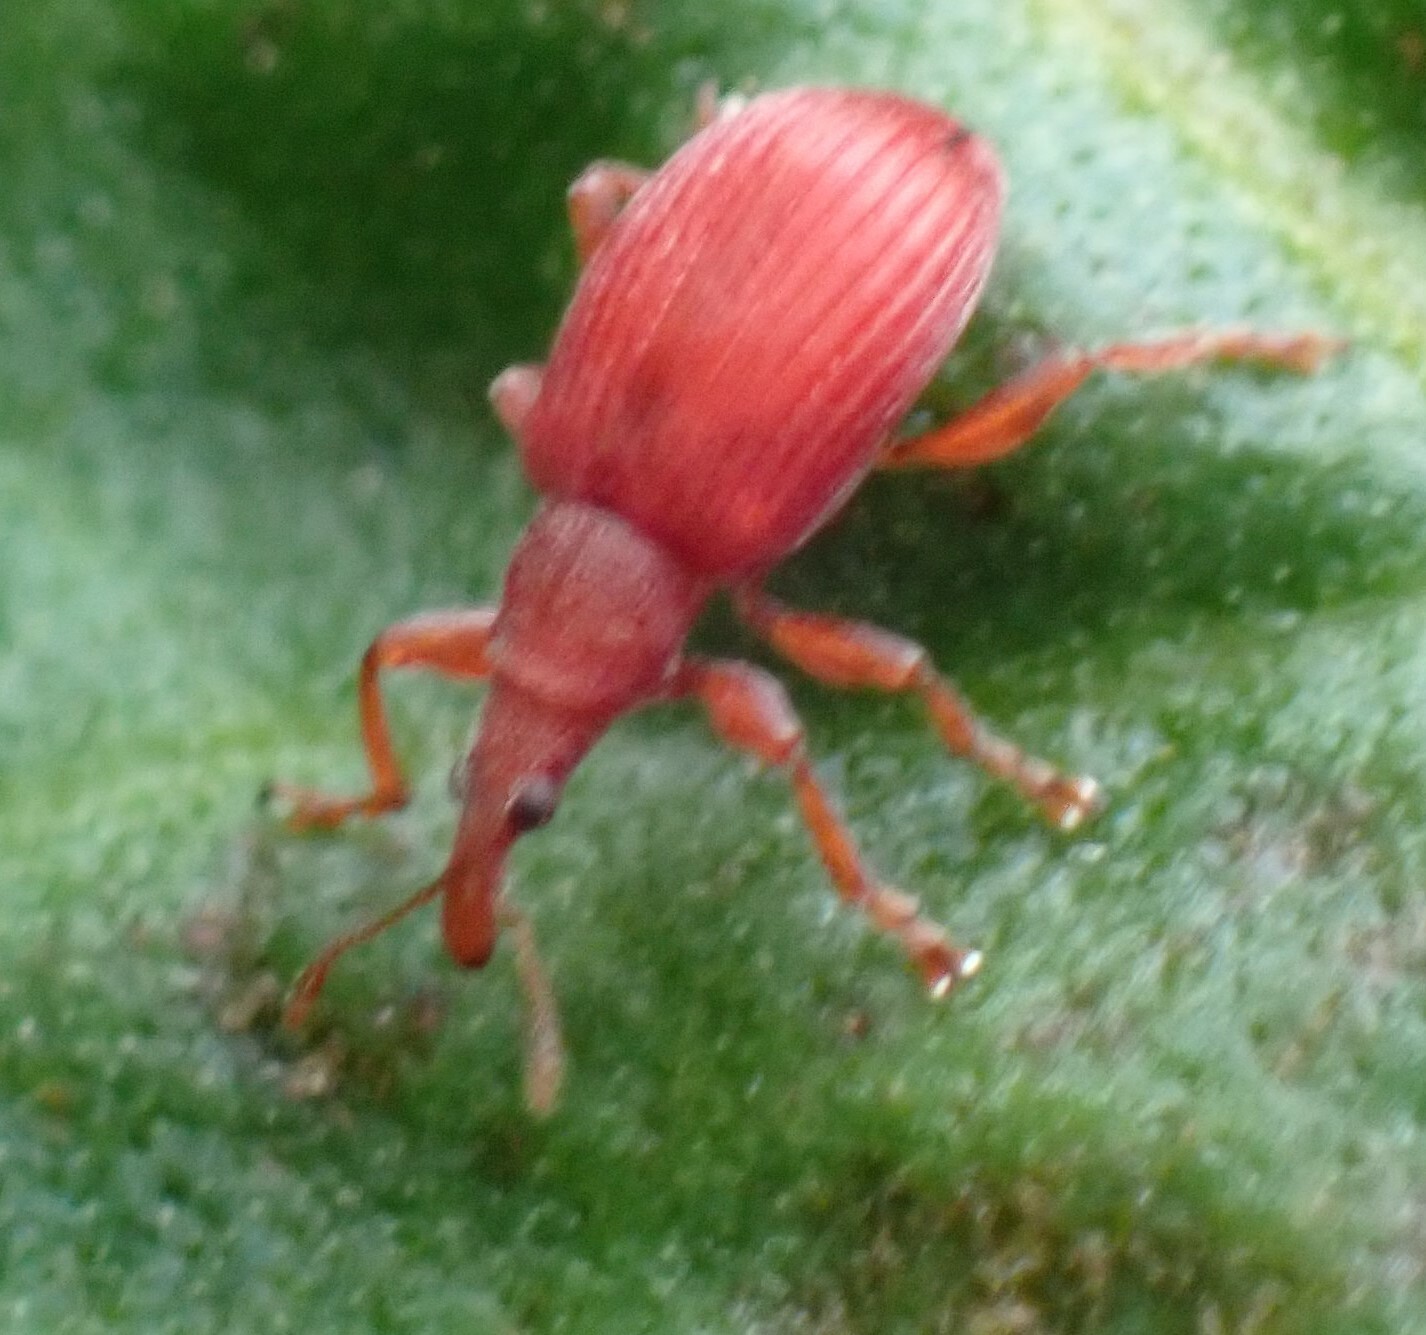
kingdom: Animalia
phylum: Arthropoda
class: Insecta
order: Coleoptera
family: Apionidae
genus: Apion
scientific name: Apion frumentarium
